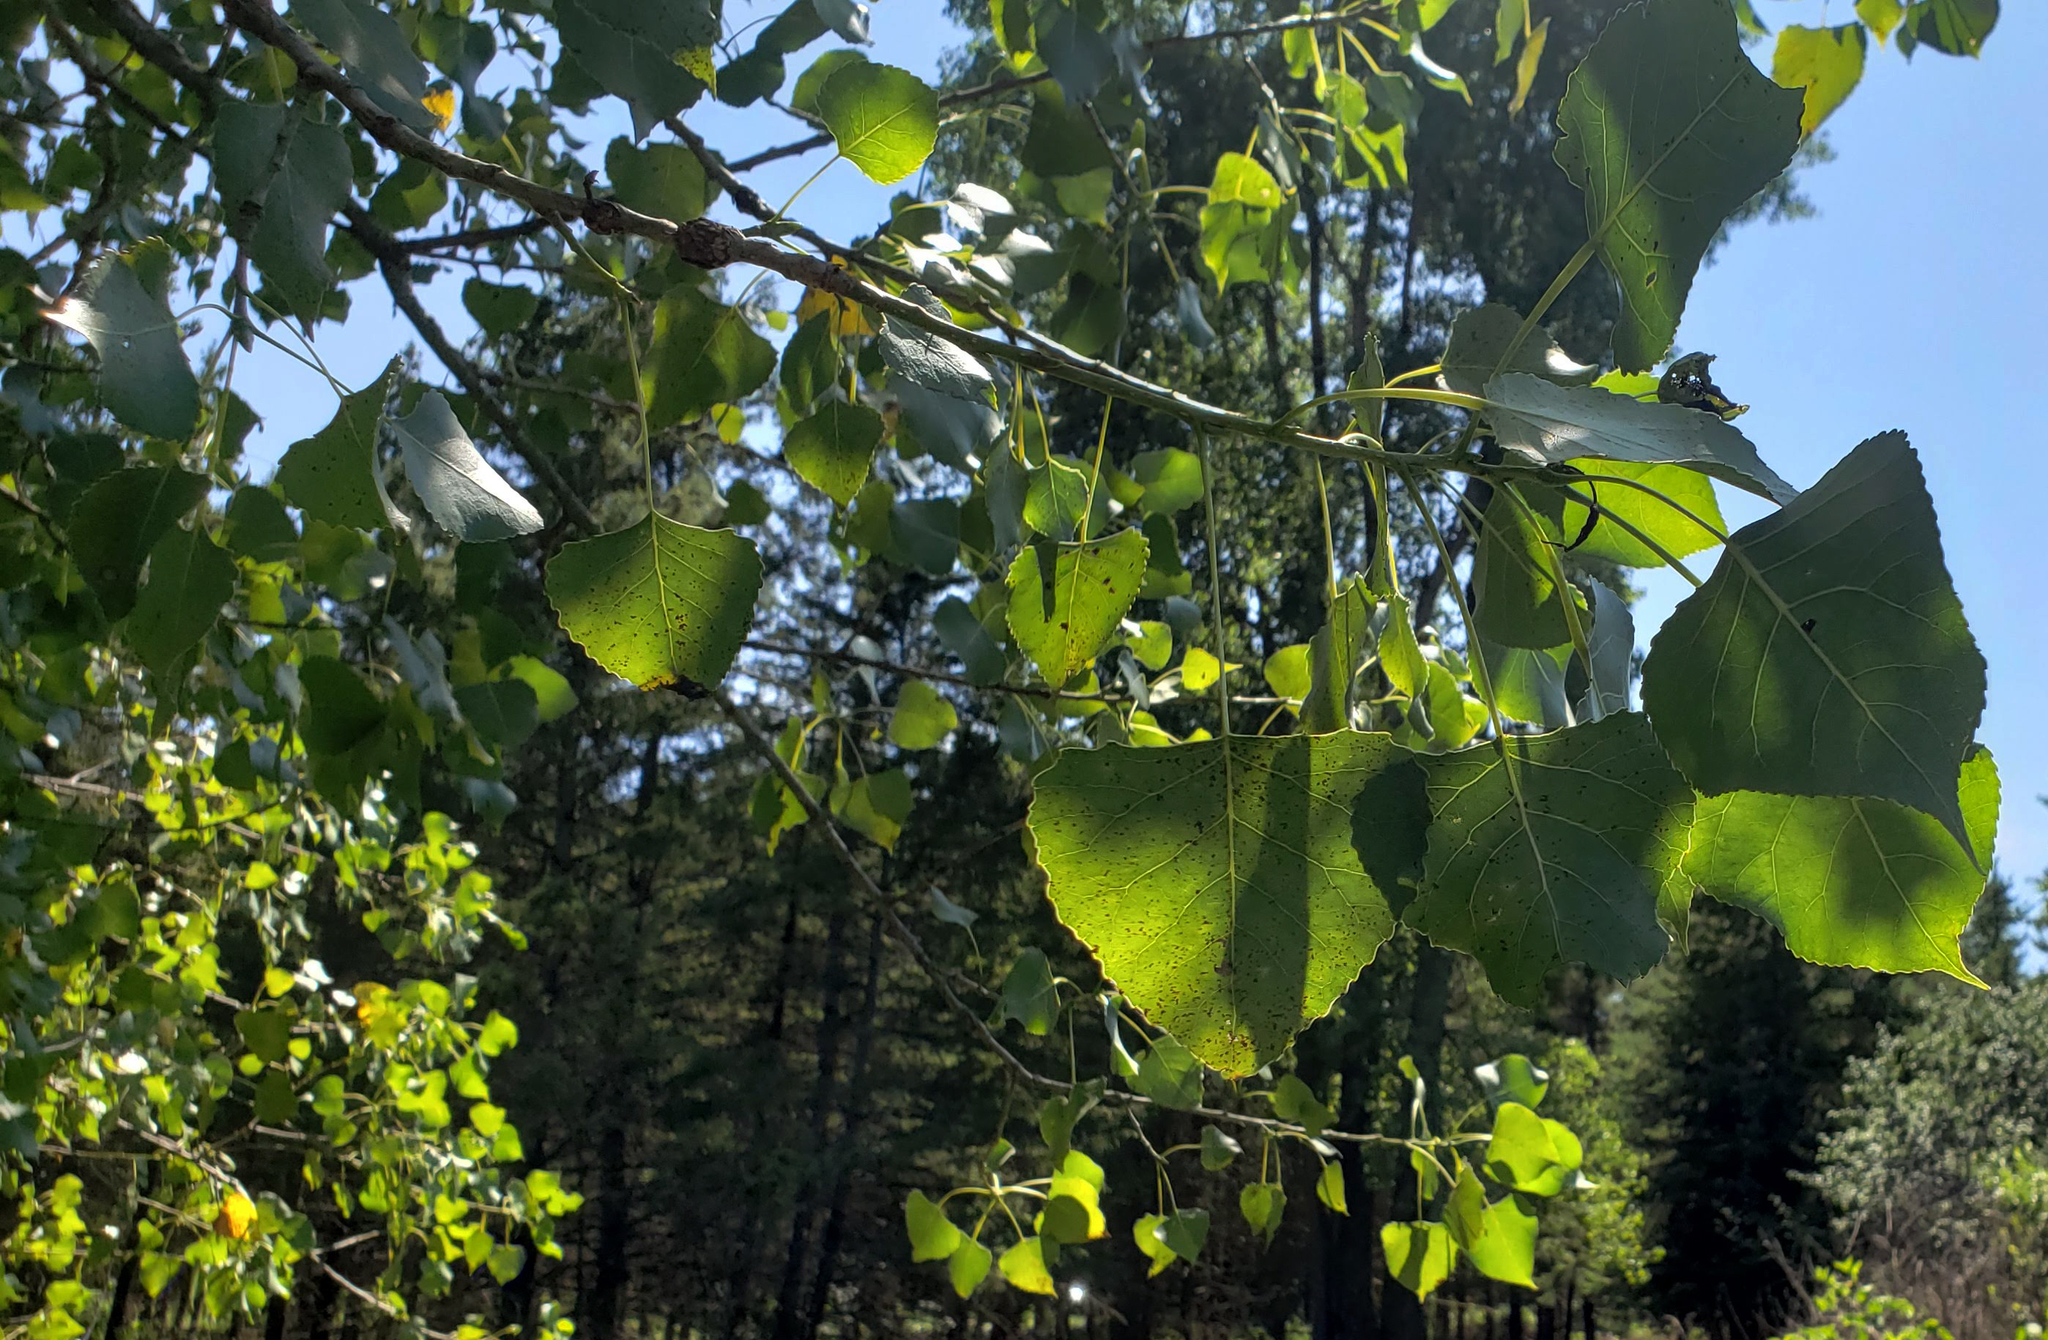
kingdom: Plantae
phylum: Tracheophyta
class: Magnoliopsida
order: Malpighiales
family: Salicaceae
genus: Populus
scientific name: Populus deltoides
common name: Eastern cottonwood
